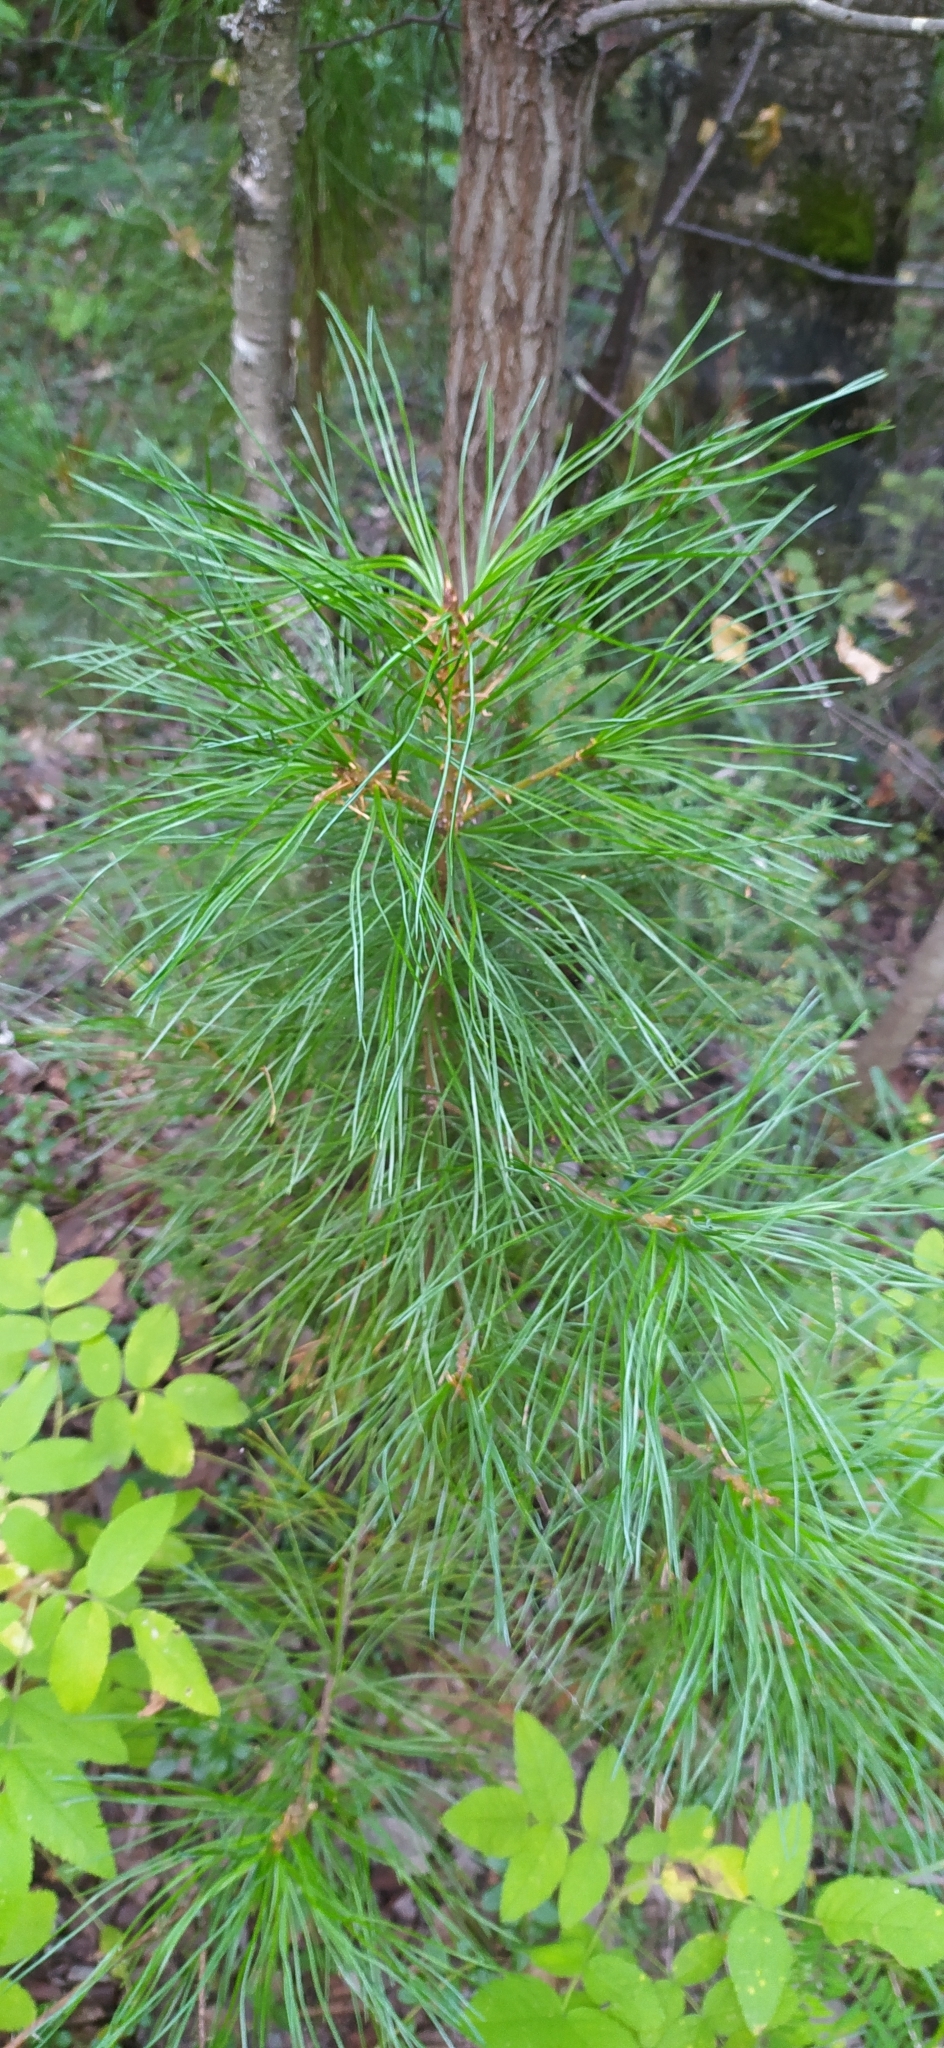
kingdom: Plantae
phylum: Tracheophyta
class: Pinopsida
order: Pinales
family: Pinaceae
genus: Pinus
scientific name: Pinus sibirica
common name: Siberian pine
